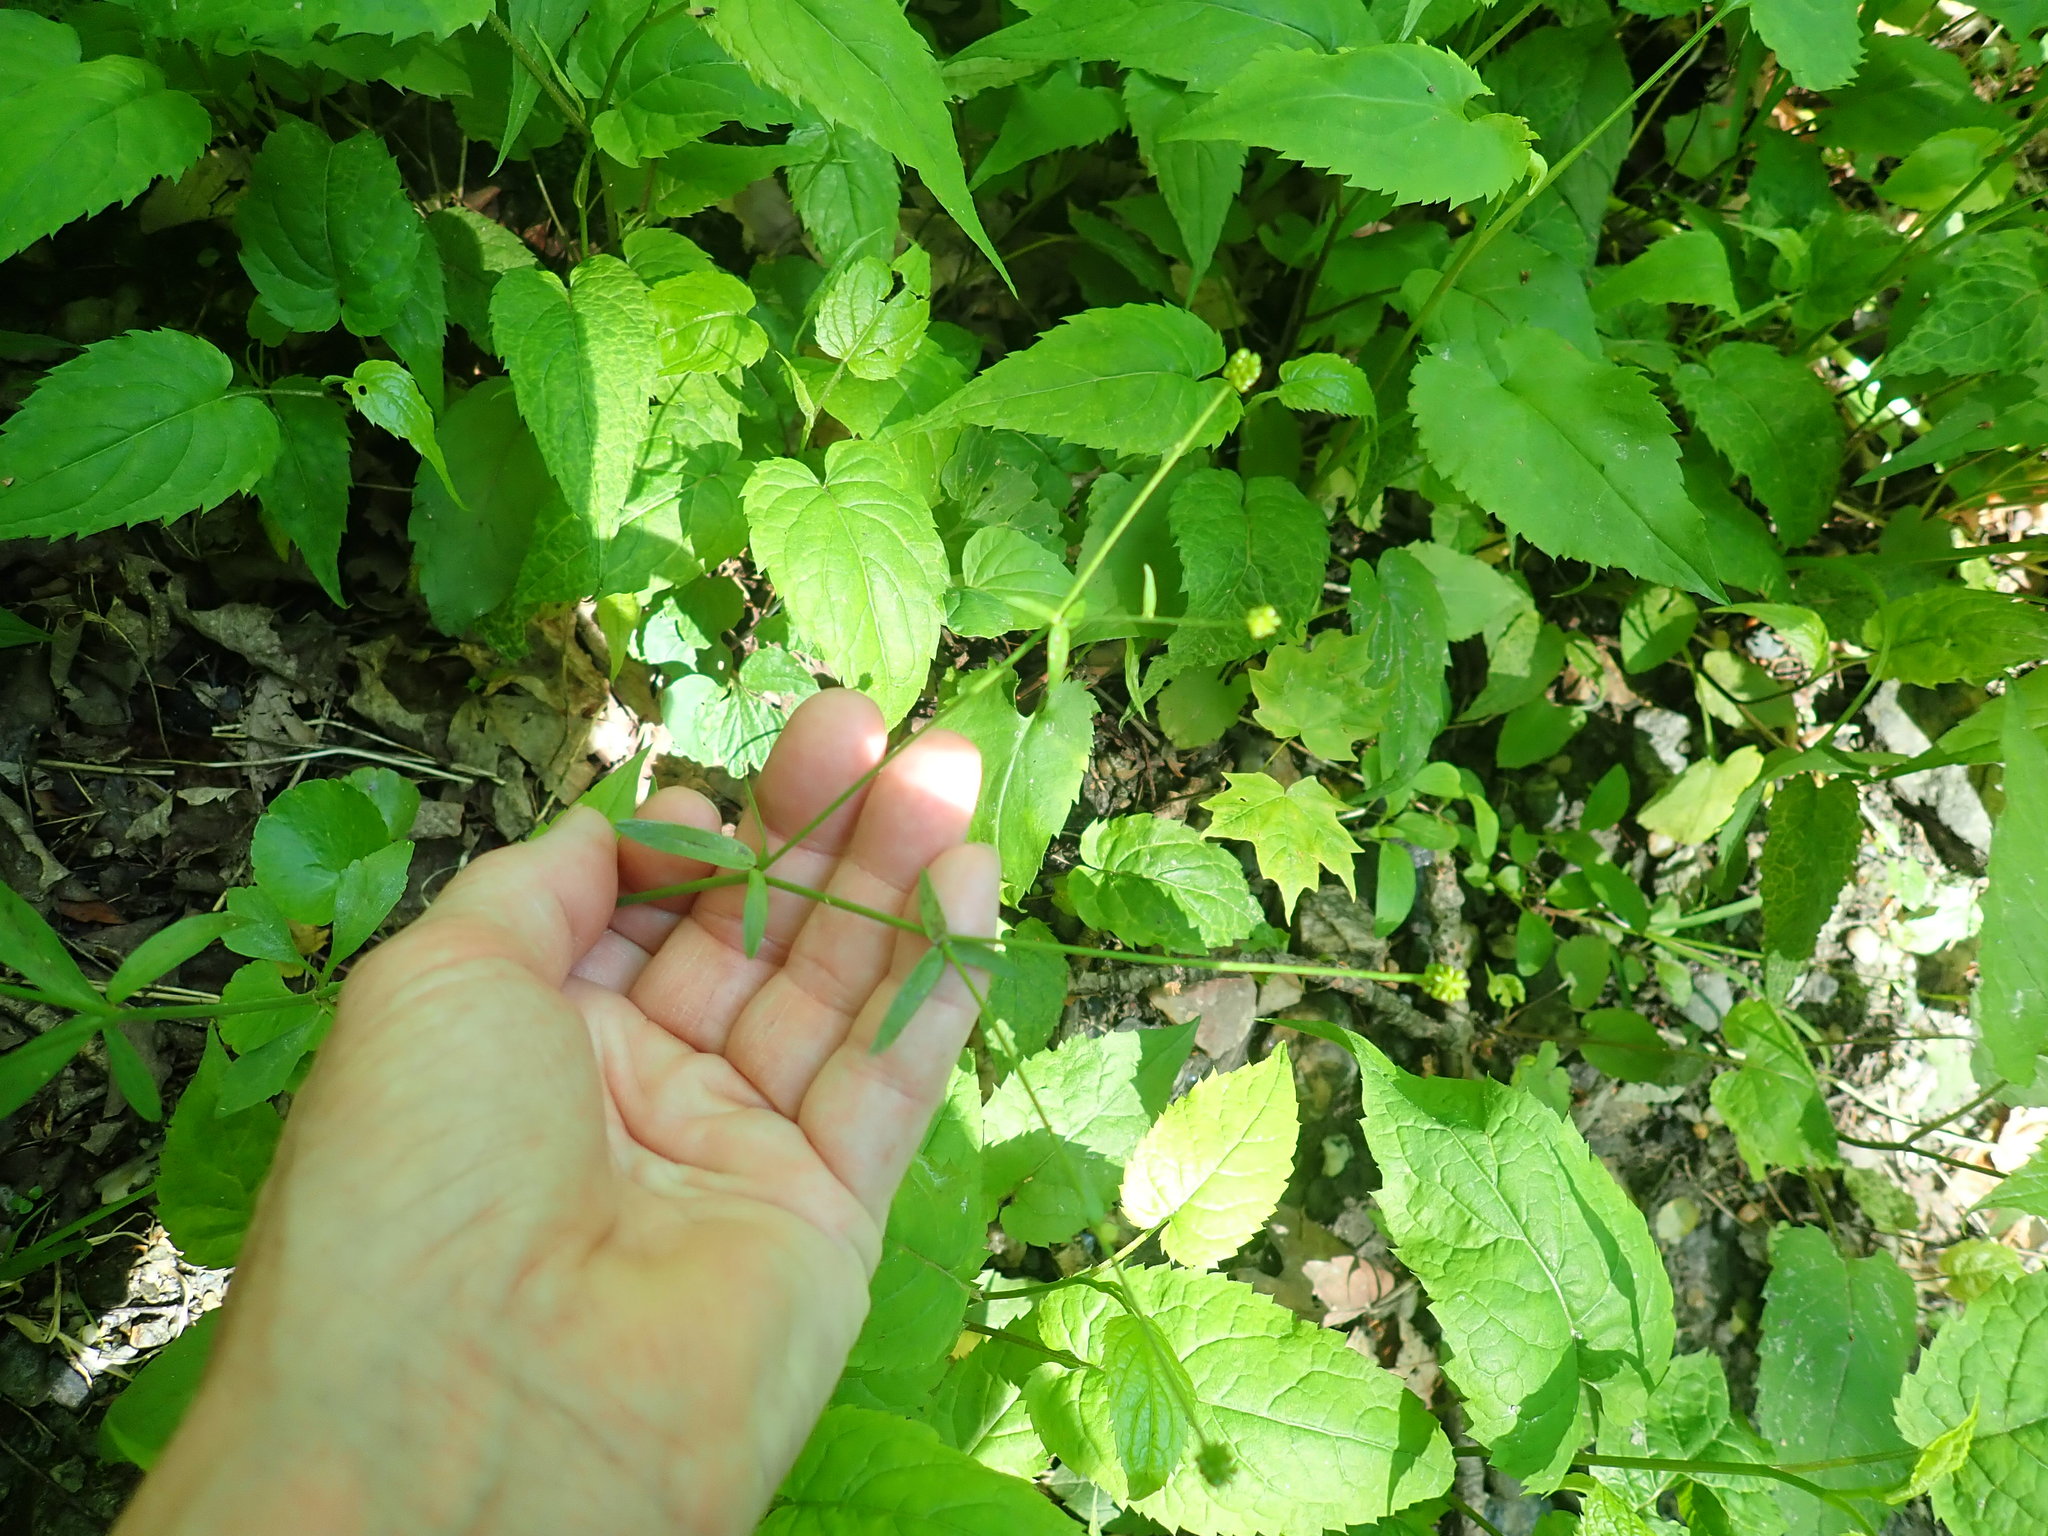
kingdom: Plantae
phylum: Tracheophyta
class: Magnoliopsida
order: Ranunculales
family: Ranunculaceae
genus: Ranunculus
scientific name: Ranunculus abortivus
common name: Early wood buttercup
